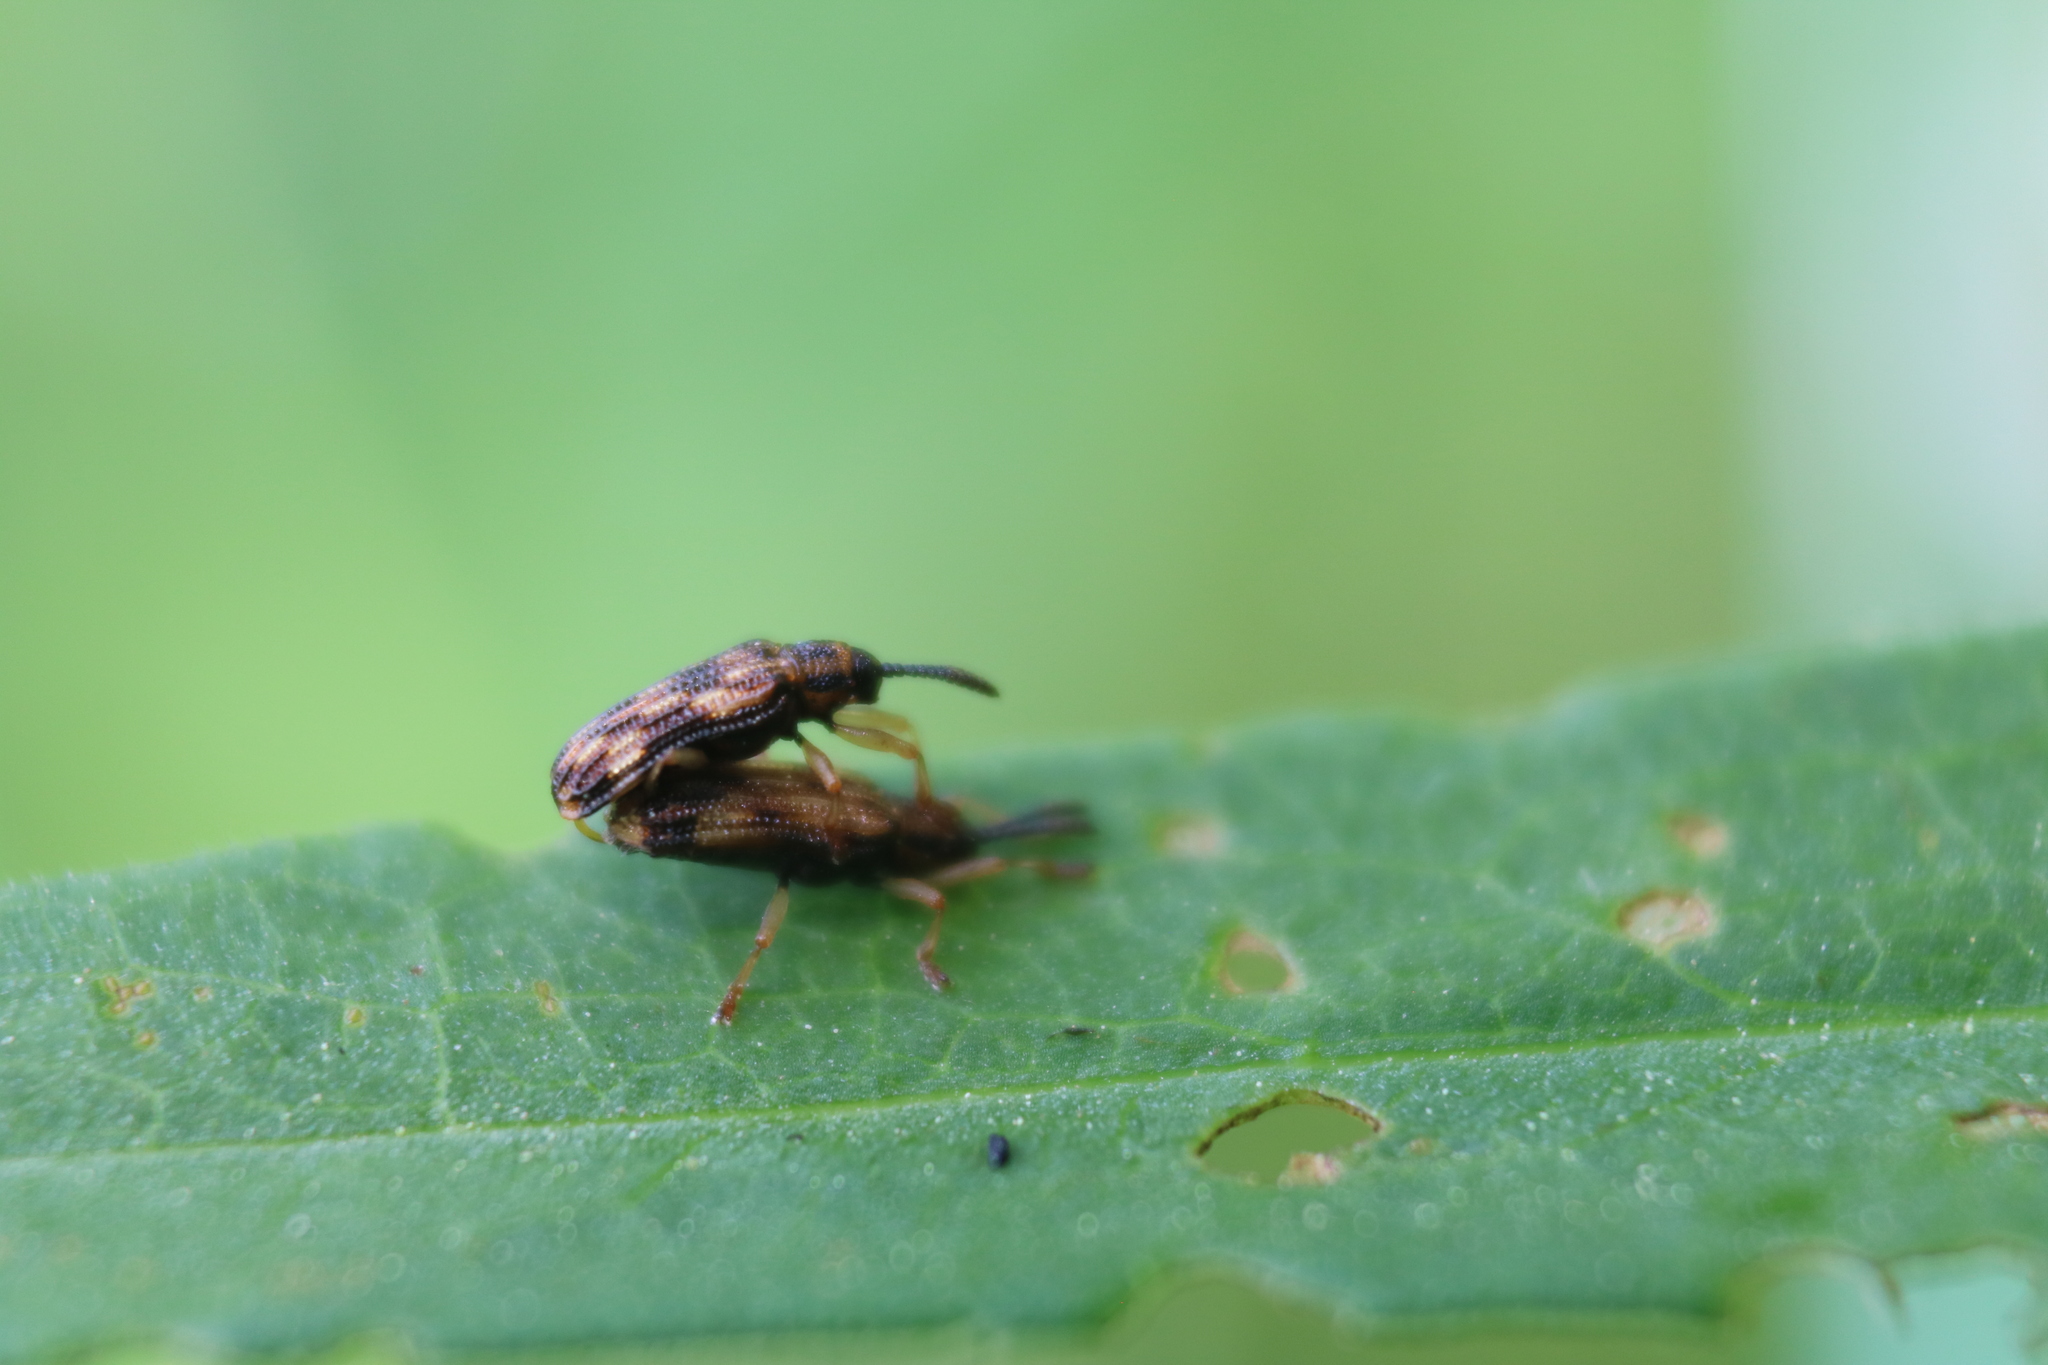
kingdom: Animalia
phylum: Arthropoda
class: Insecta
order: Coleoptera
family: Chrysomelidae
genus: Sumitrosis
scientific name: Sumitrosis inaequalis
